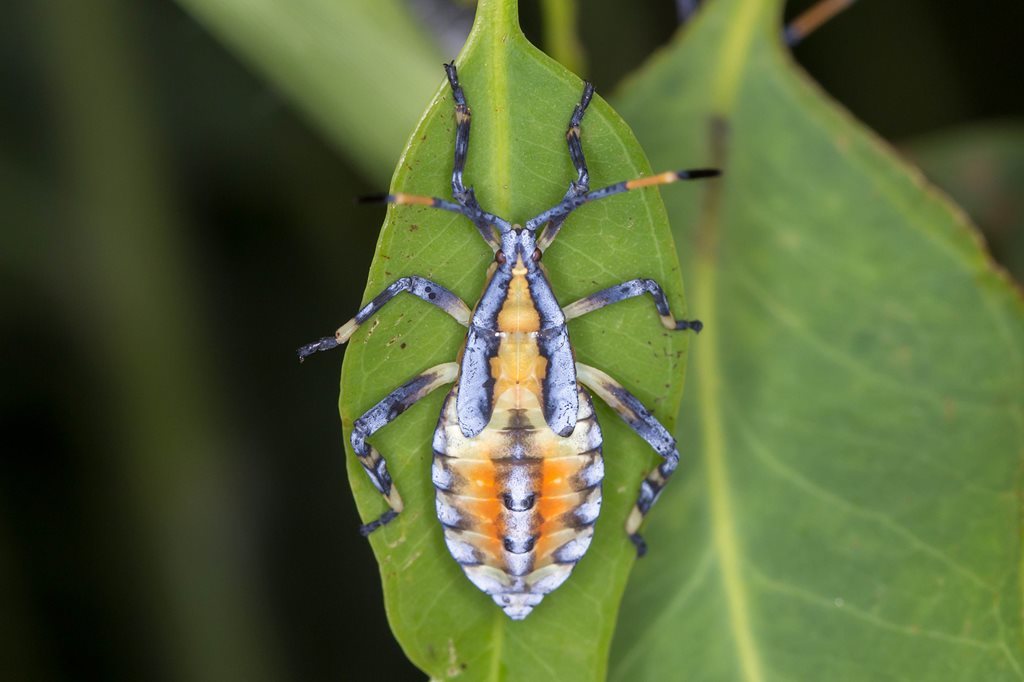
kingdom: Animalia
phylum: Arthropoda
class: Insecta
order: Hemiptera
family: Coreidae
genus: Amorbus
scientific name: Amorbus alternatus
